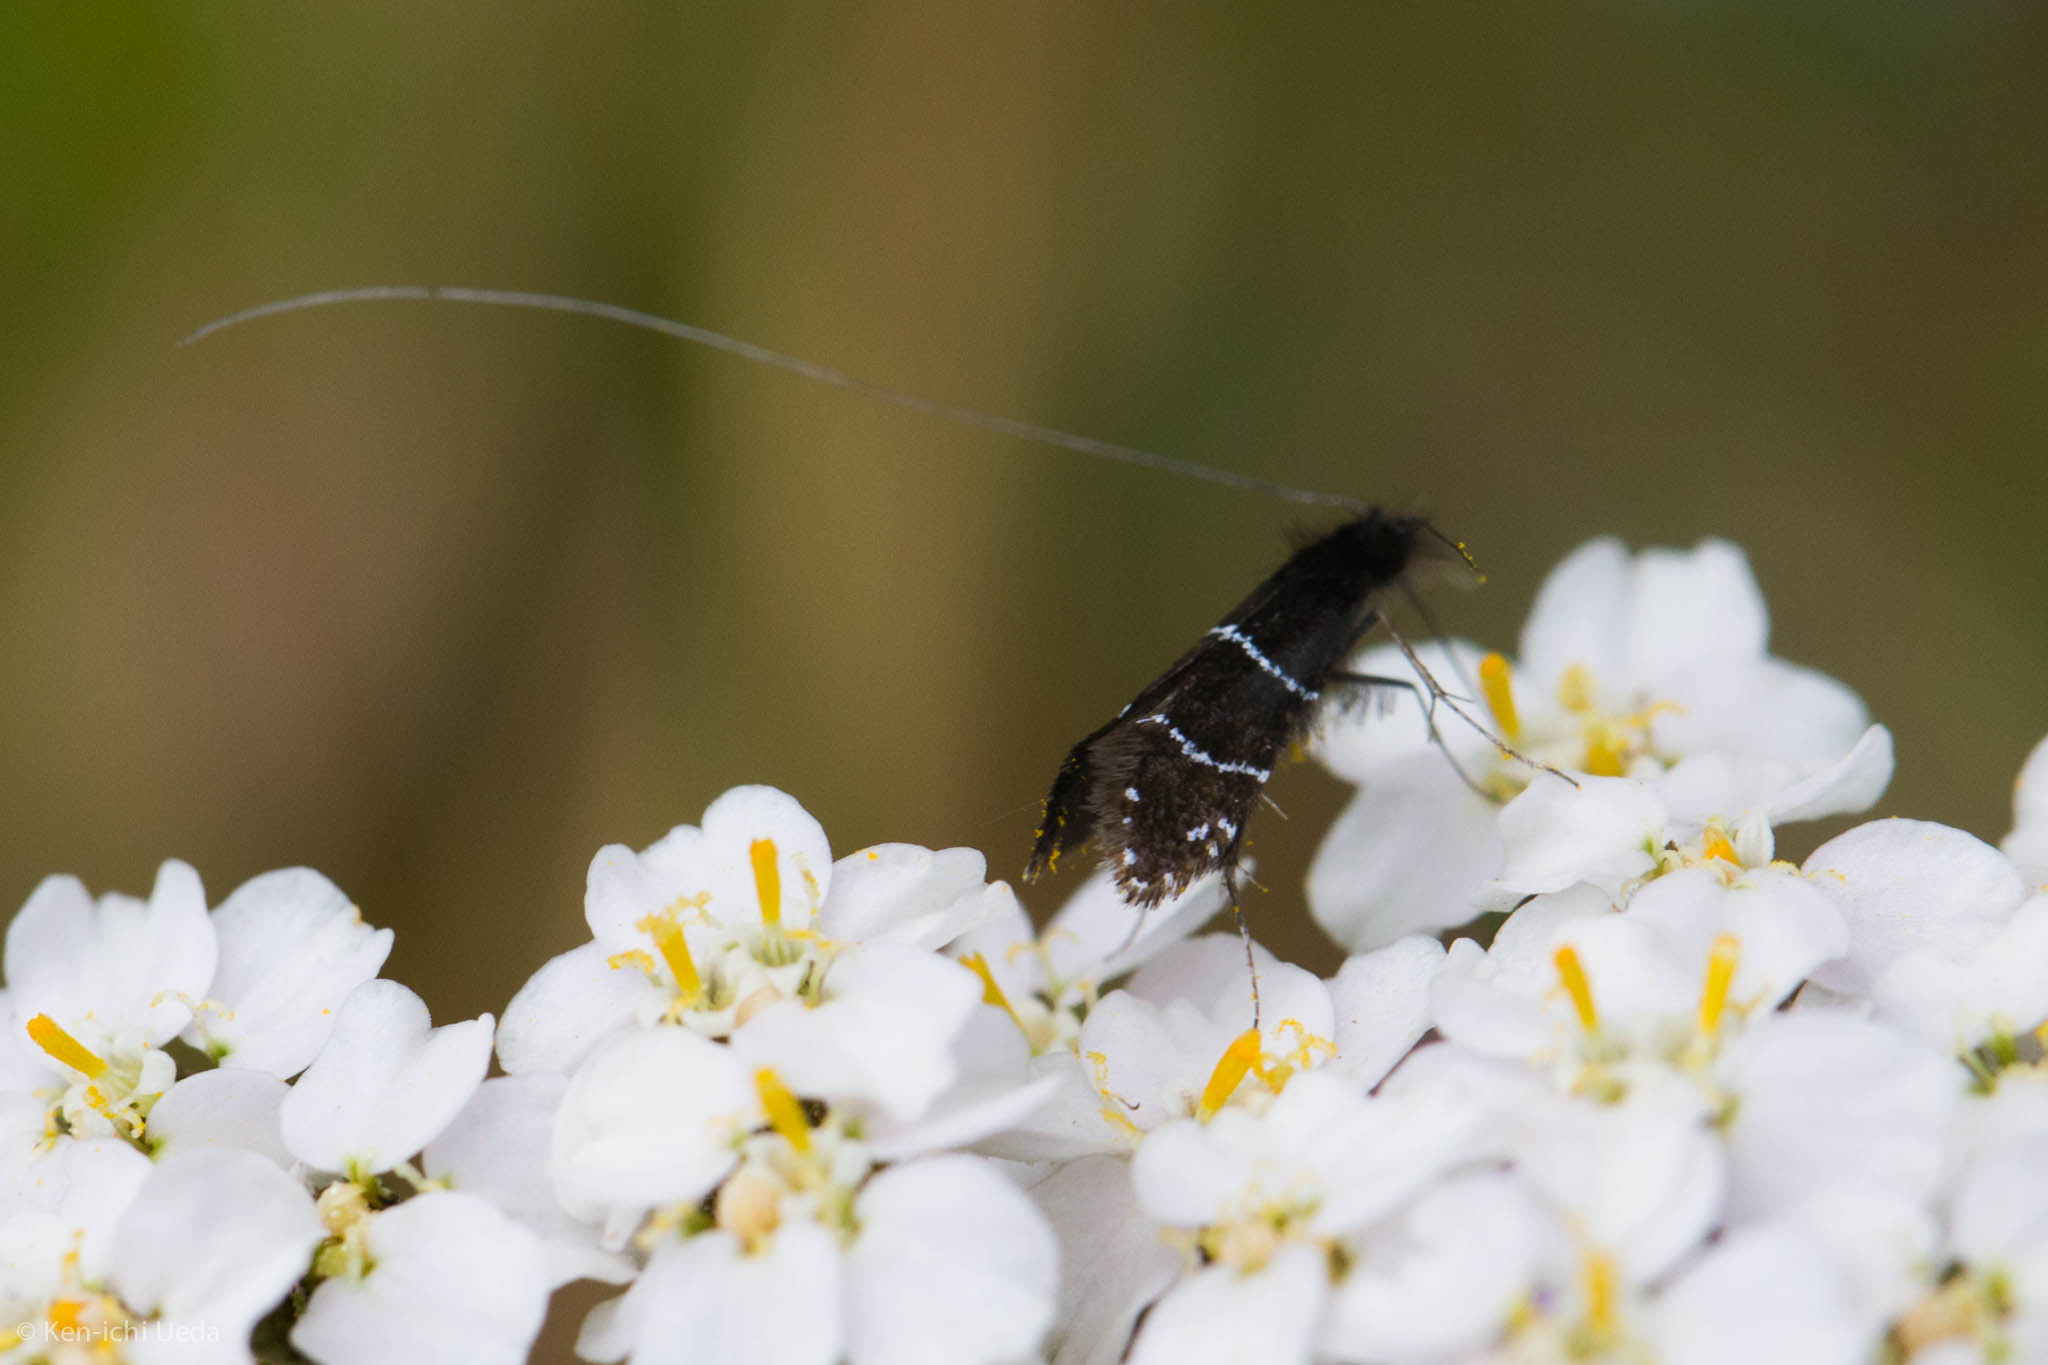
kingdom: Animalia
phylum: Arthropoda
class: Insecta
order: Lepidoptera
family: Adelidae
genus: Adela
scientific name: Adela septentrionella
